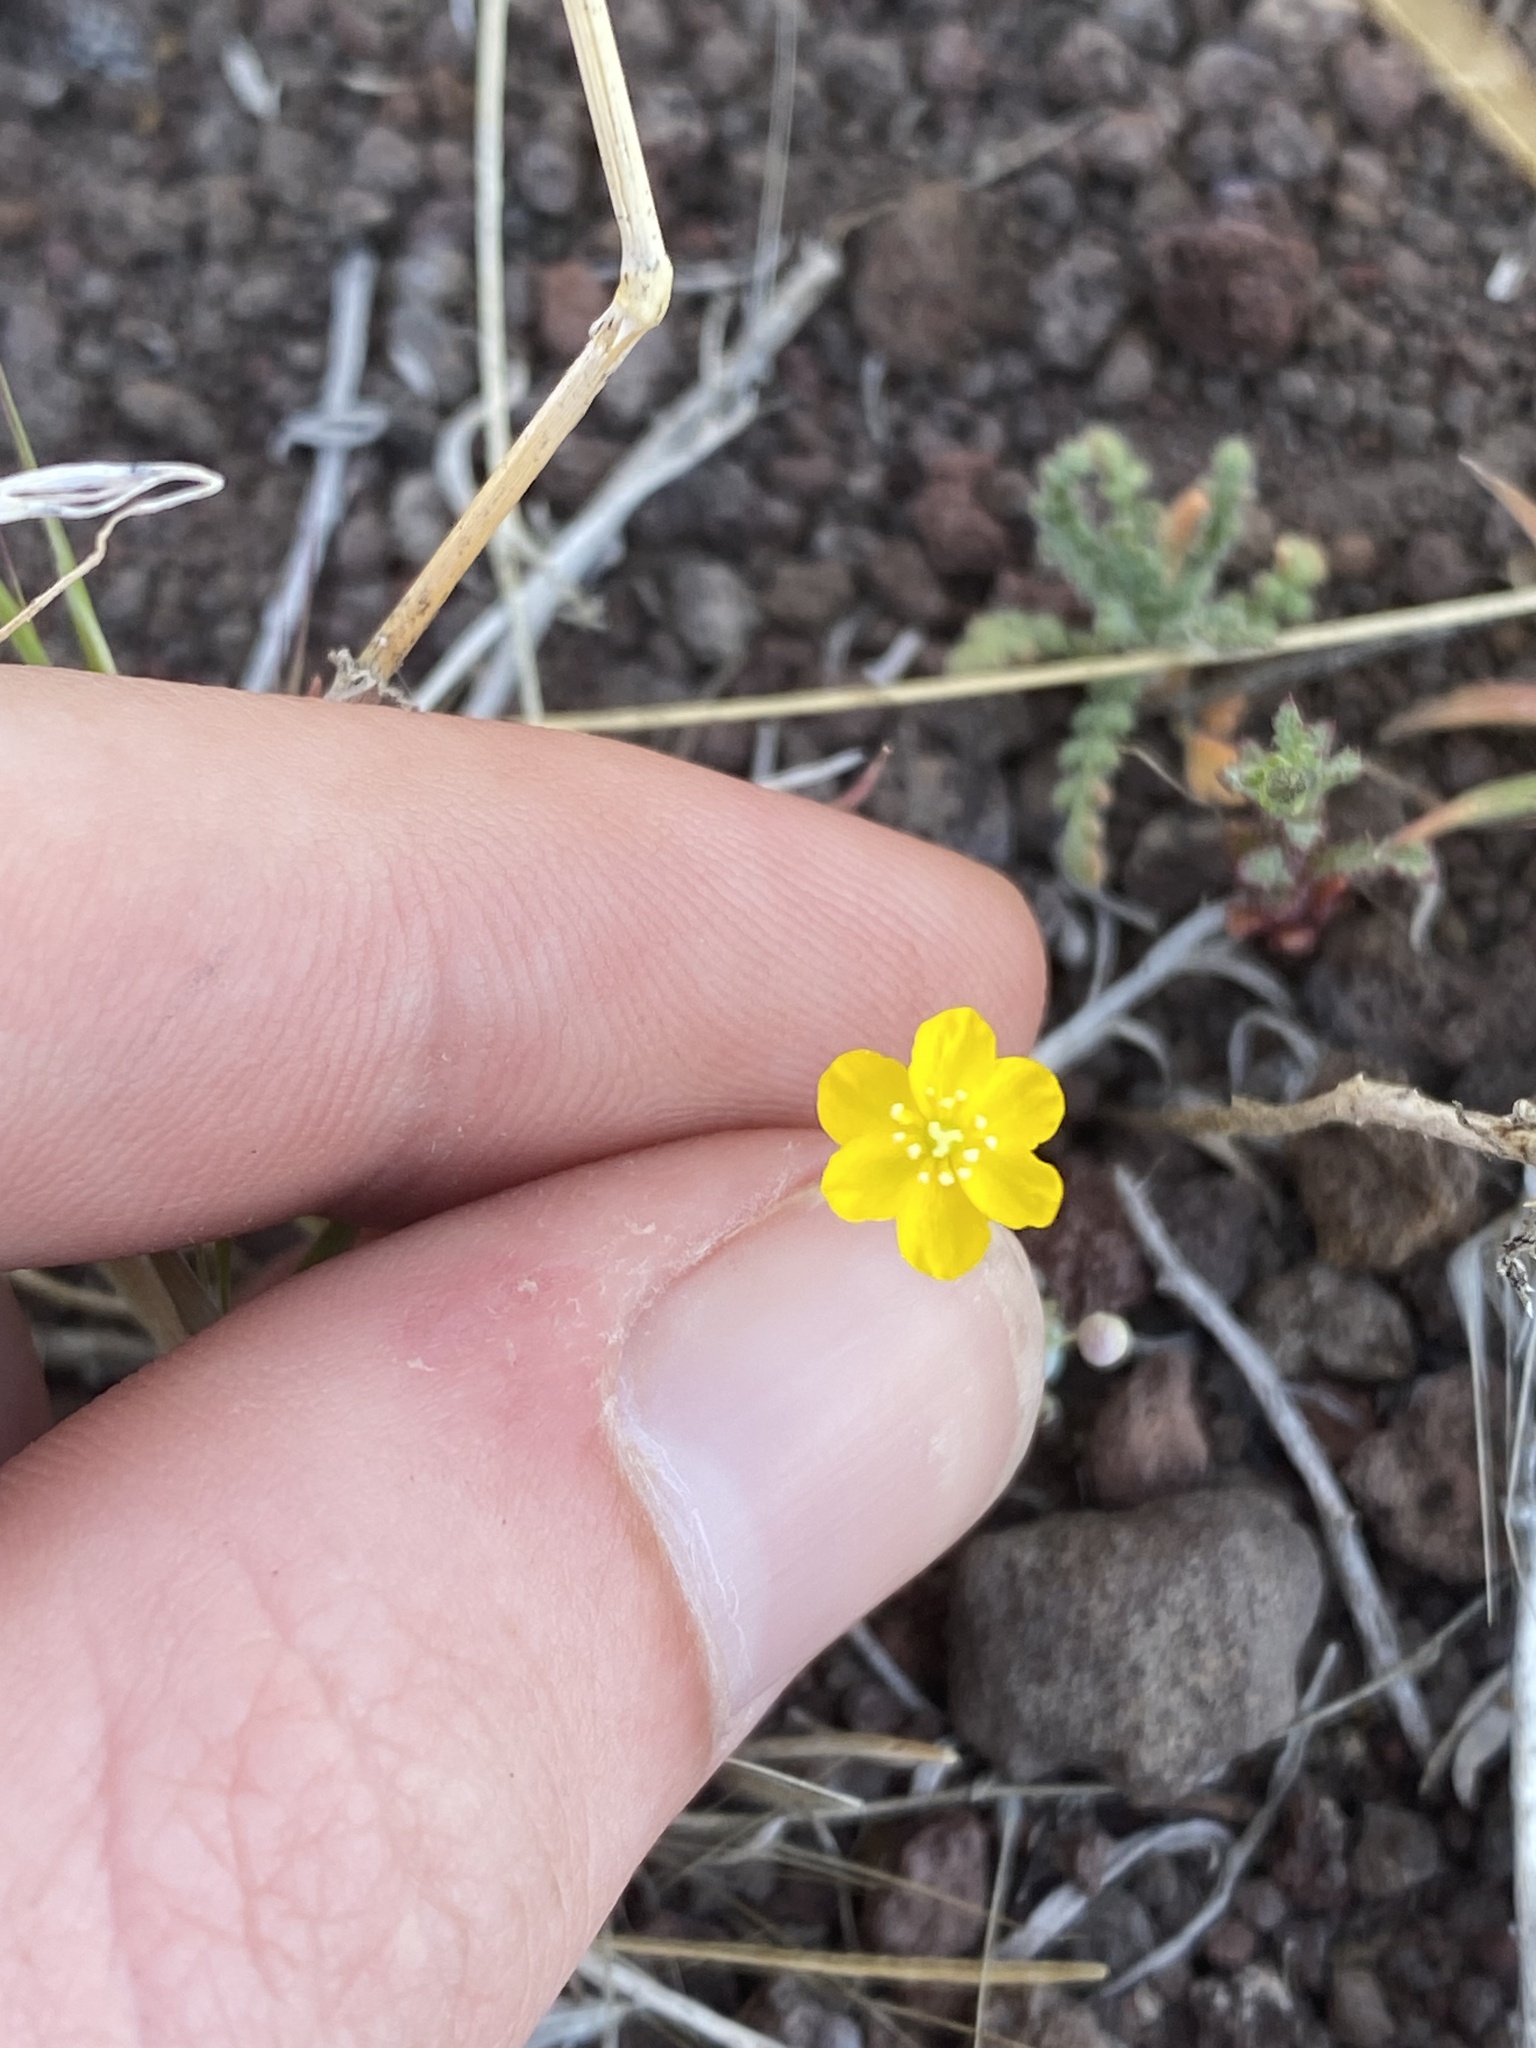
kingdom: Plantae
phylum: Tracheophyta
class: Magnoliopsida
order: Ranunculales
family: Papaveraceae
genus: Canbya
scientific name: Canbya aurea
